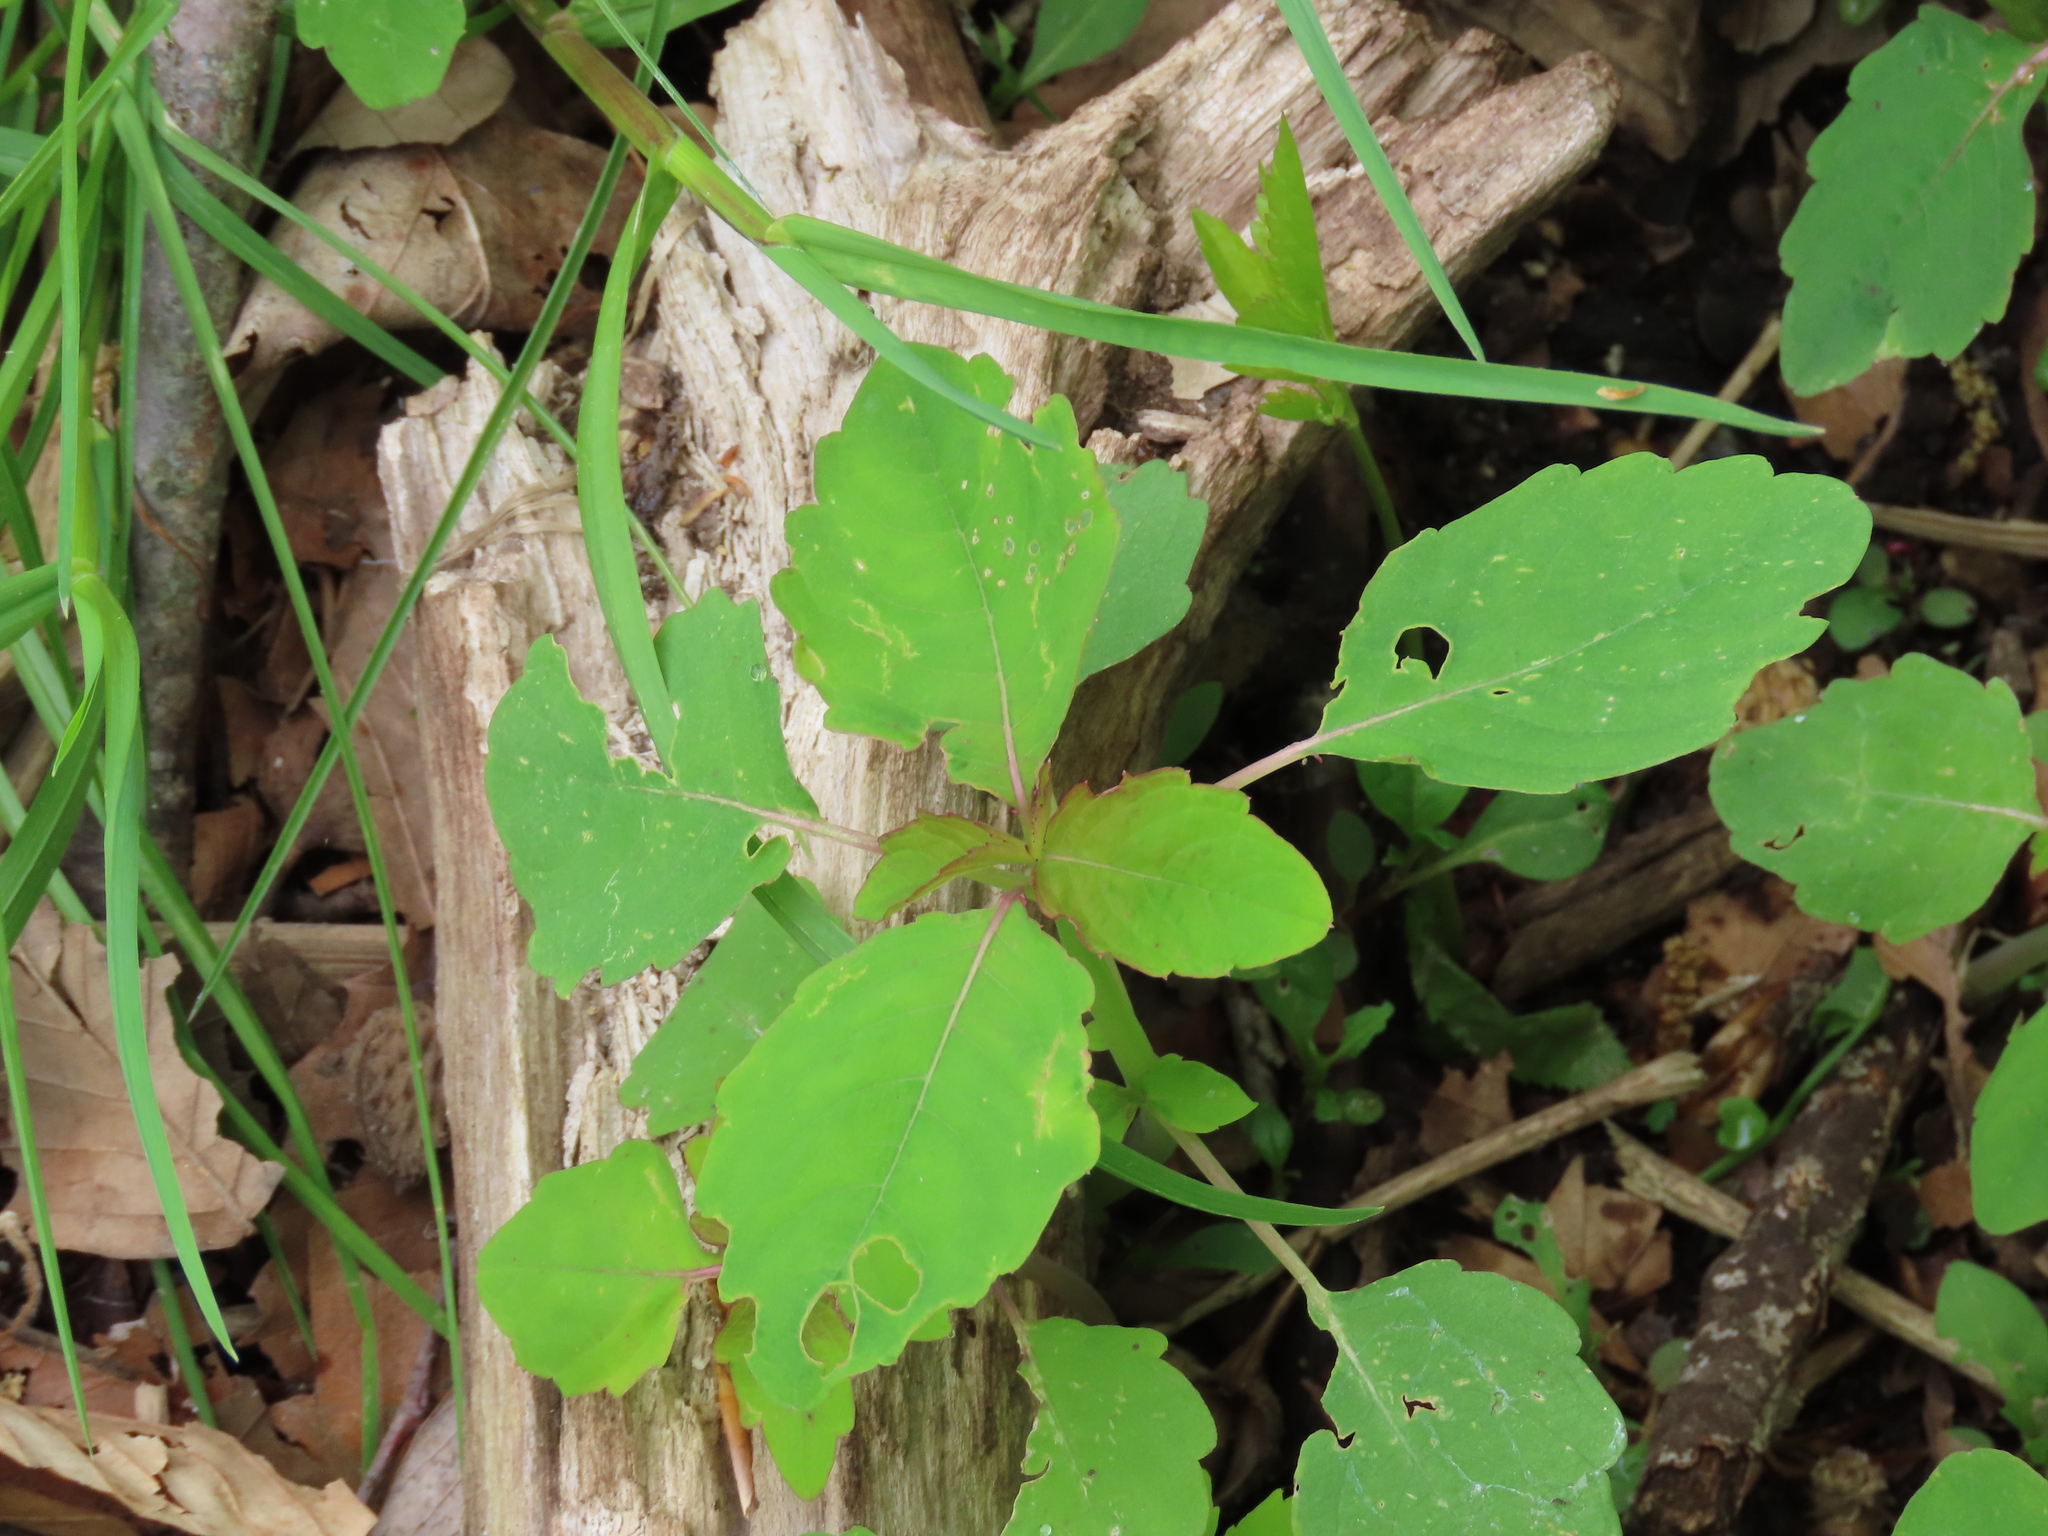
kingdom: Plantae
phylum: Tracheophyta
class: Magnoliopsida
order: Ericales
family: Balsaminaceae
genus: Impatiens
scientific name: Impatiens capensis
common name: Orange balsam
